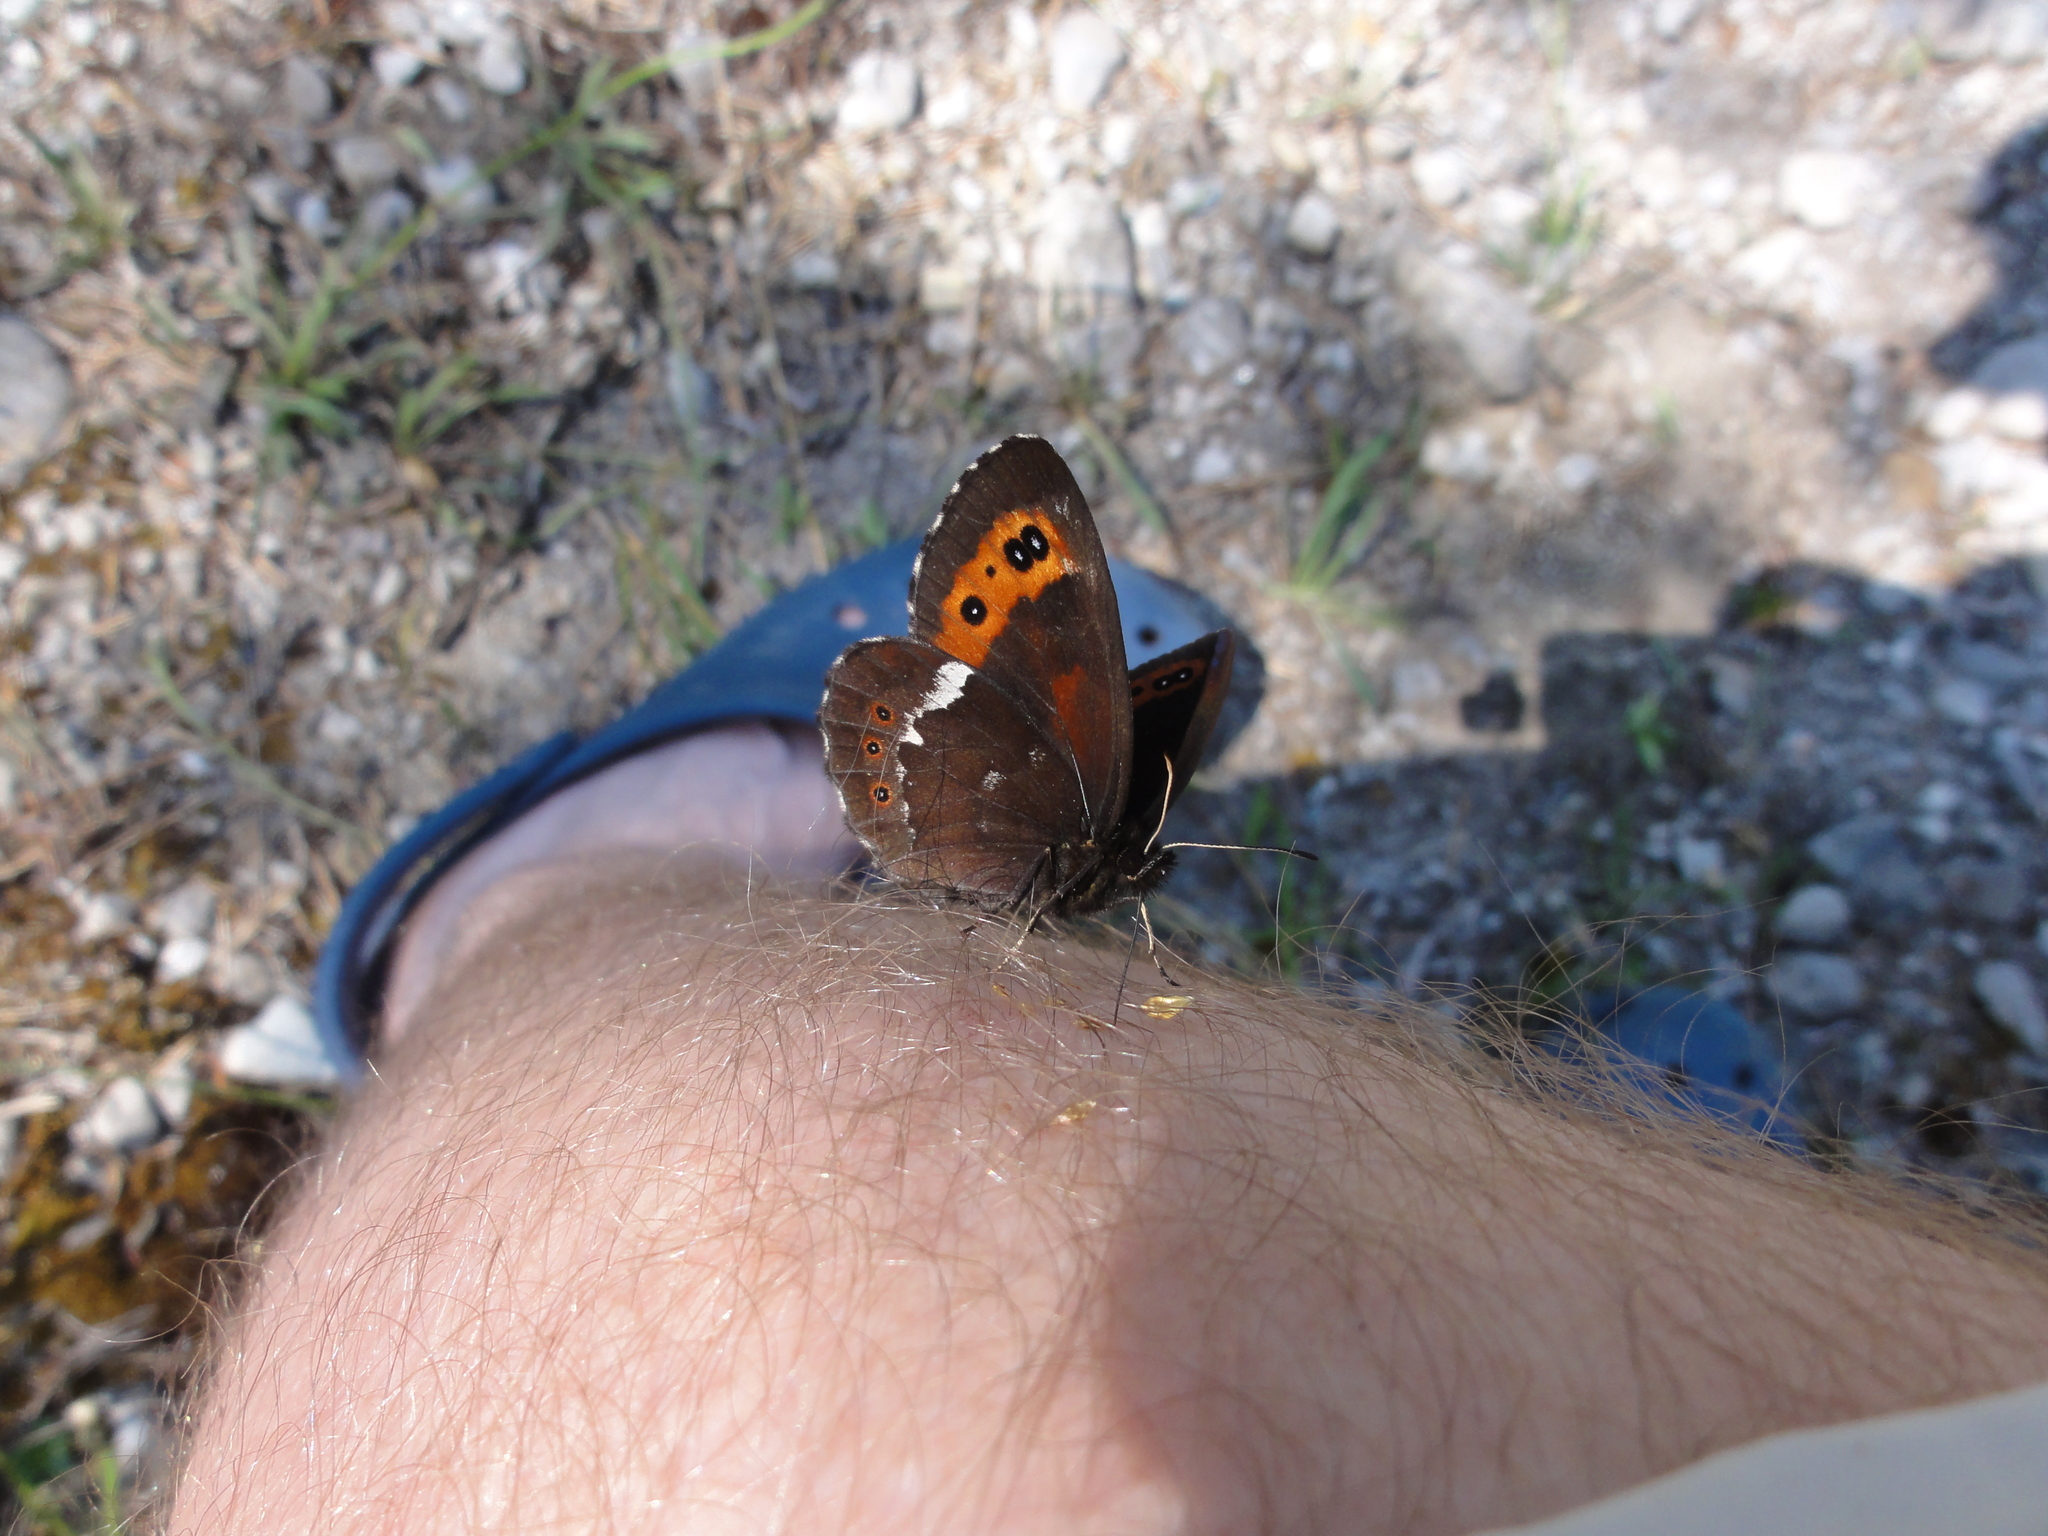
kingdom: Animalia
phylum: Arthropoda
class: Insecta
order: Lepidoptera
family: Nymphalidae
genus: Erebia
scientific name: Erebia ligea
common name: Arran brown
